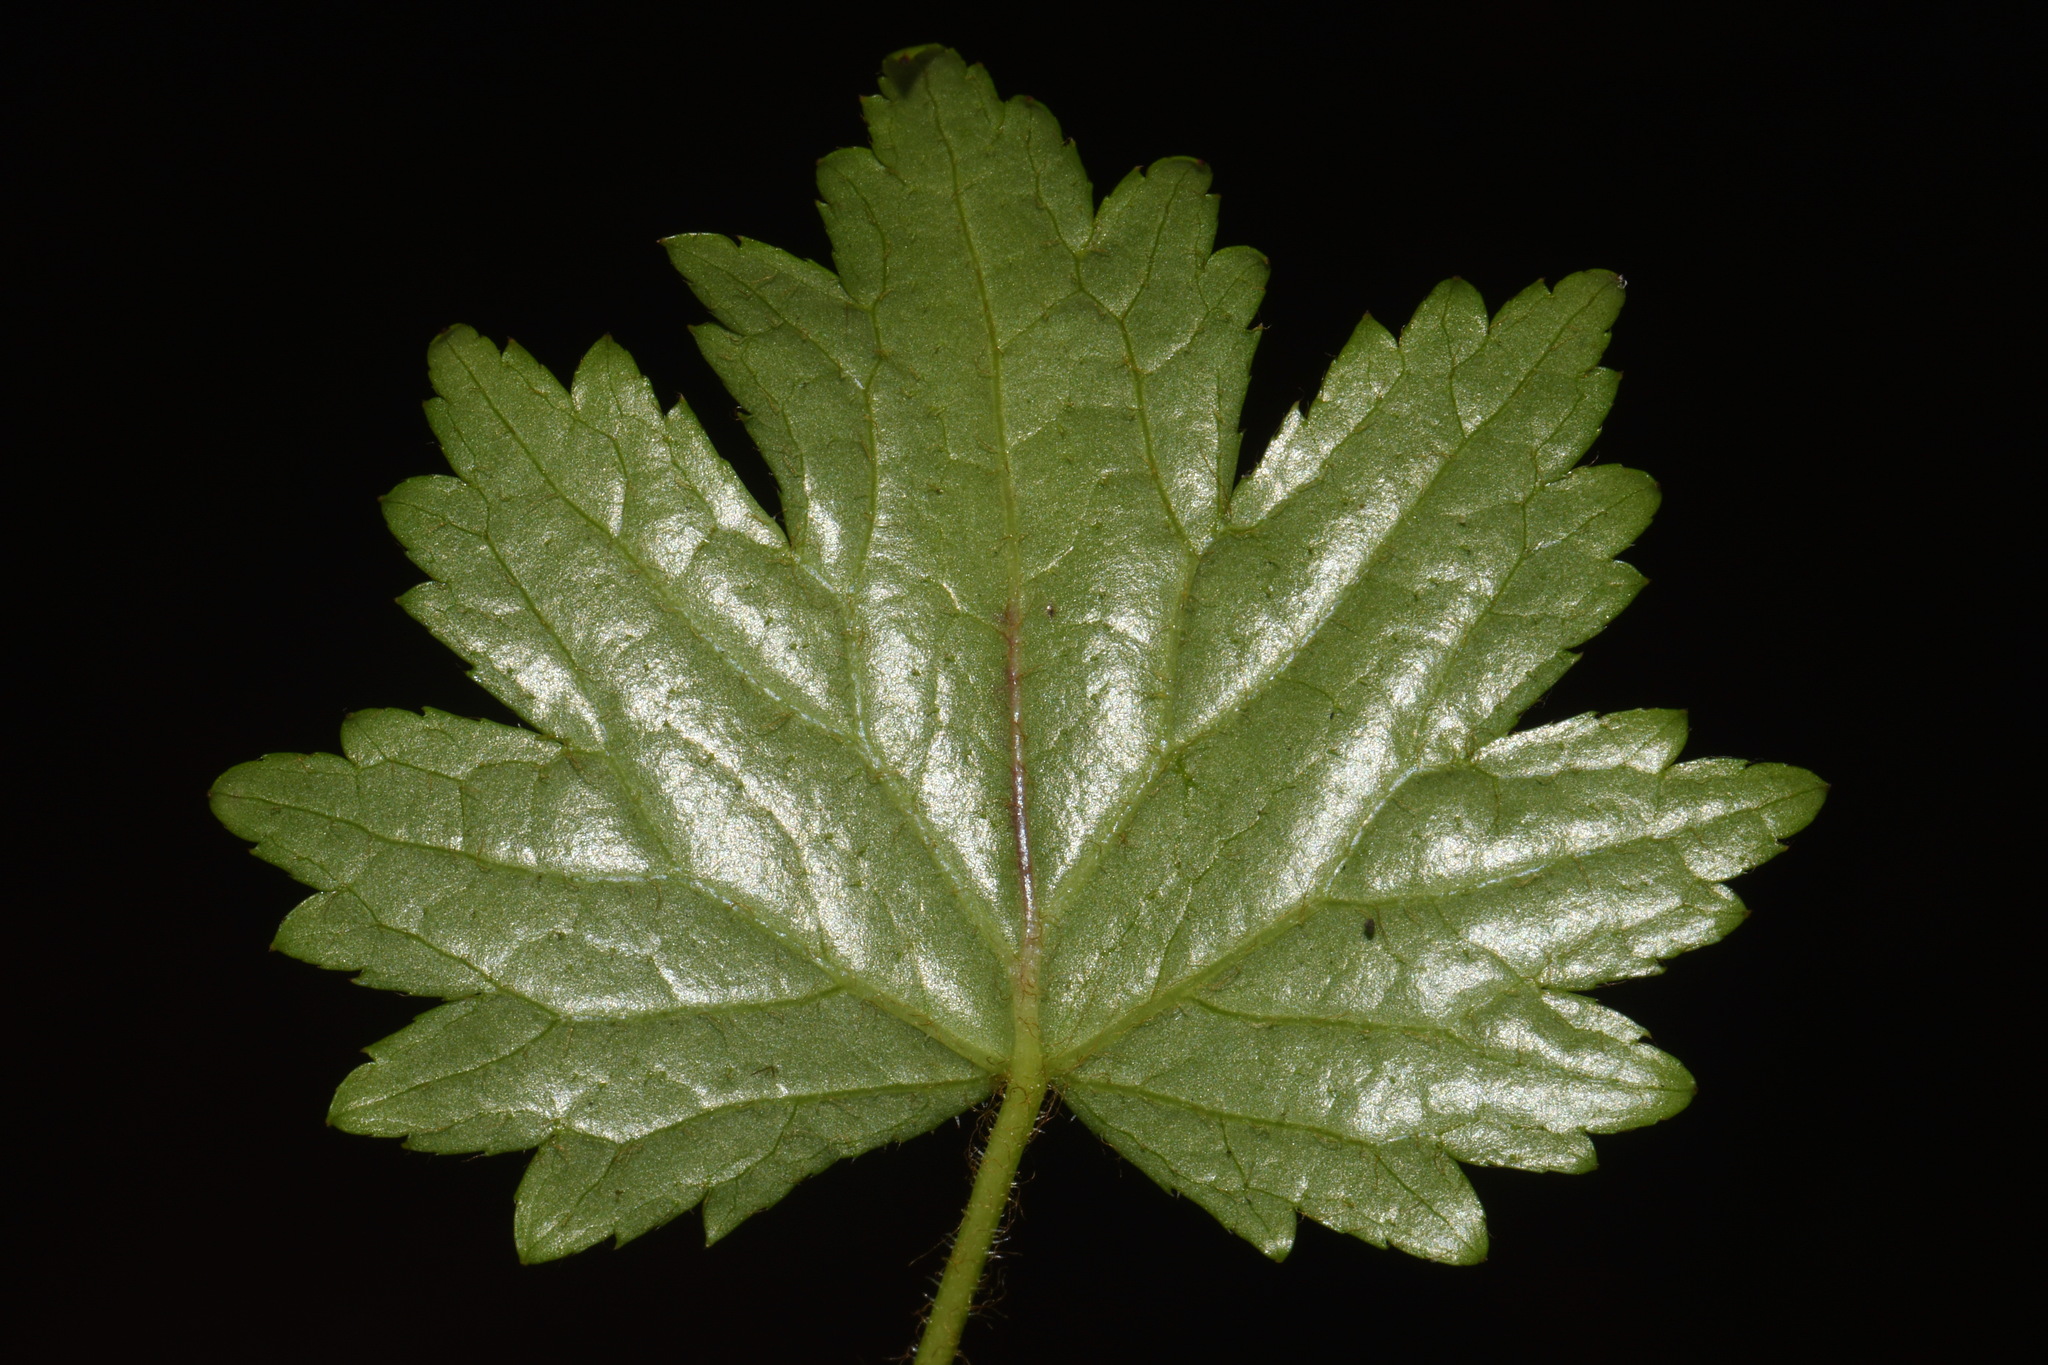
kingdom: Plantae
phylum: Tracheophyta
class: Magnoliopsida
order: Saxifragales
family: Saxifragaceae
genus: Boykinia
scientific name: Boykinia occidentalis
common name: Coast boykinia
